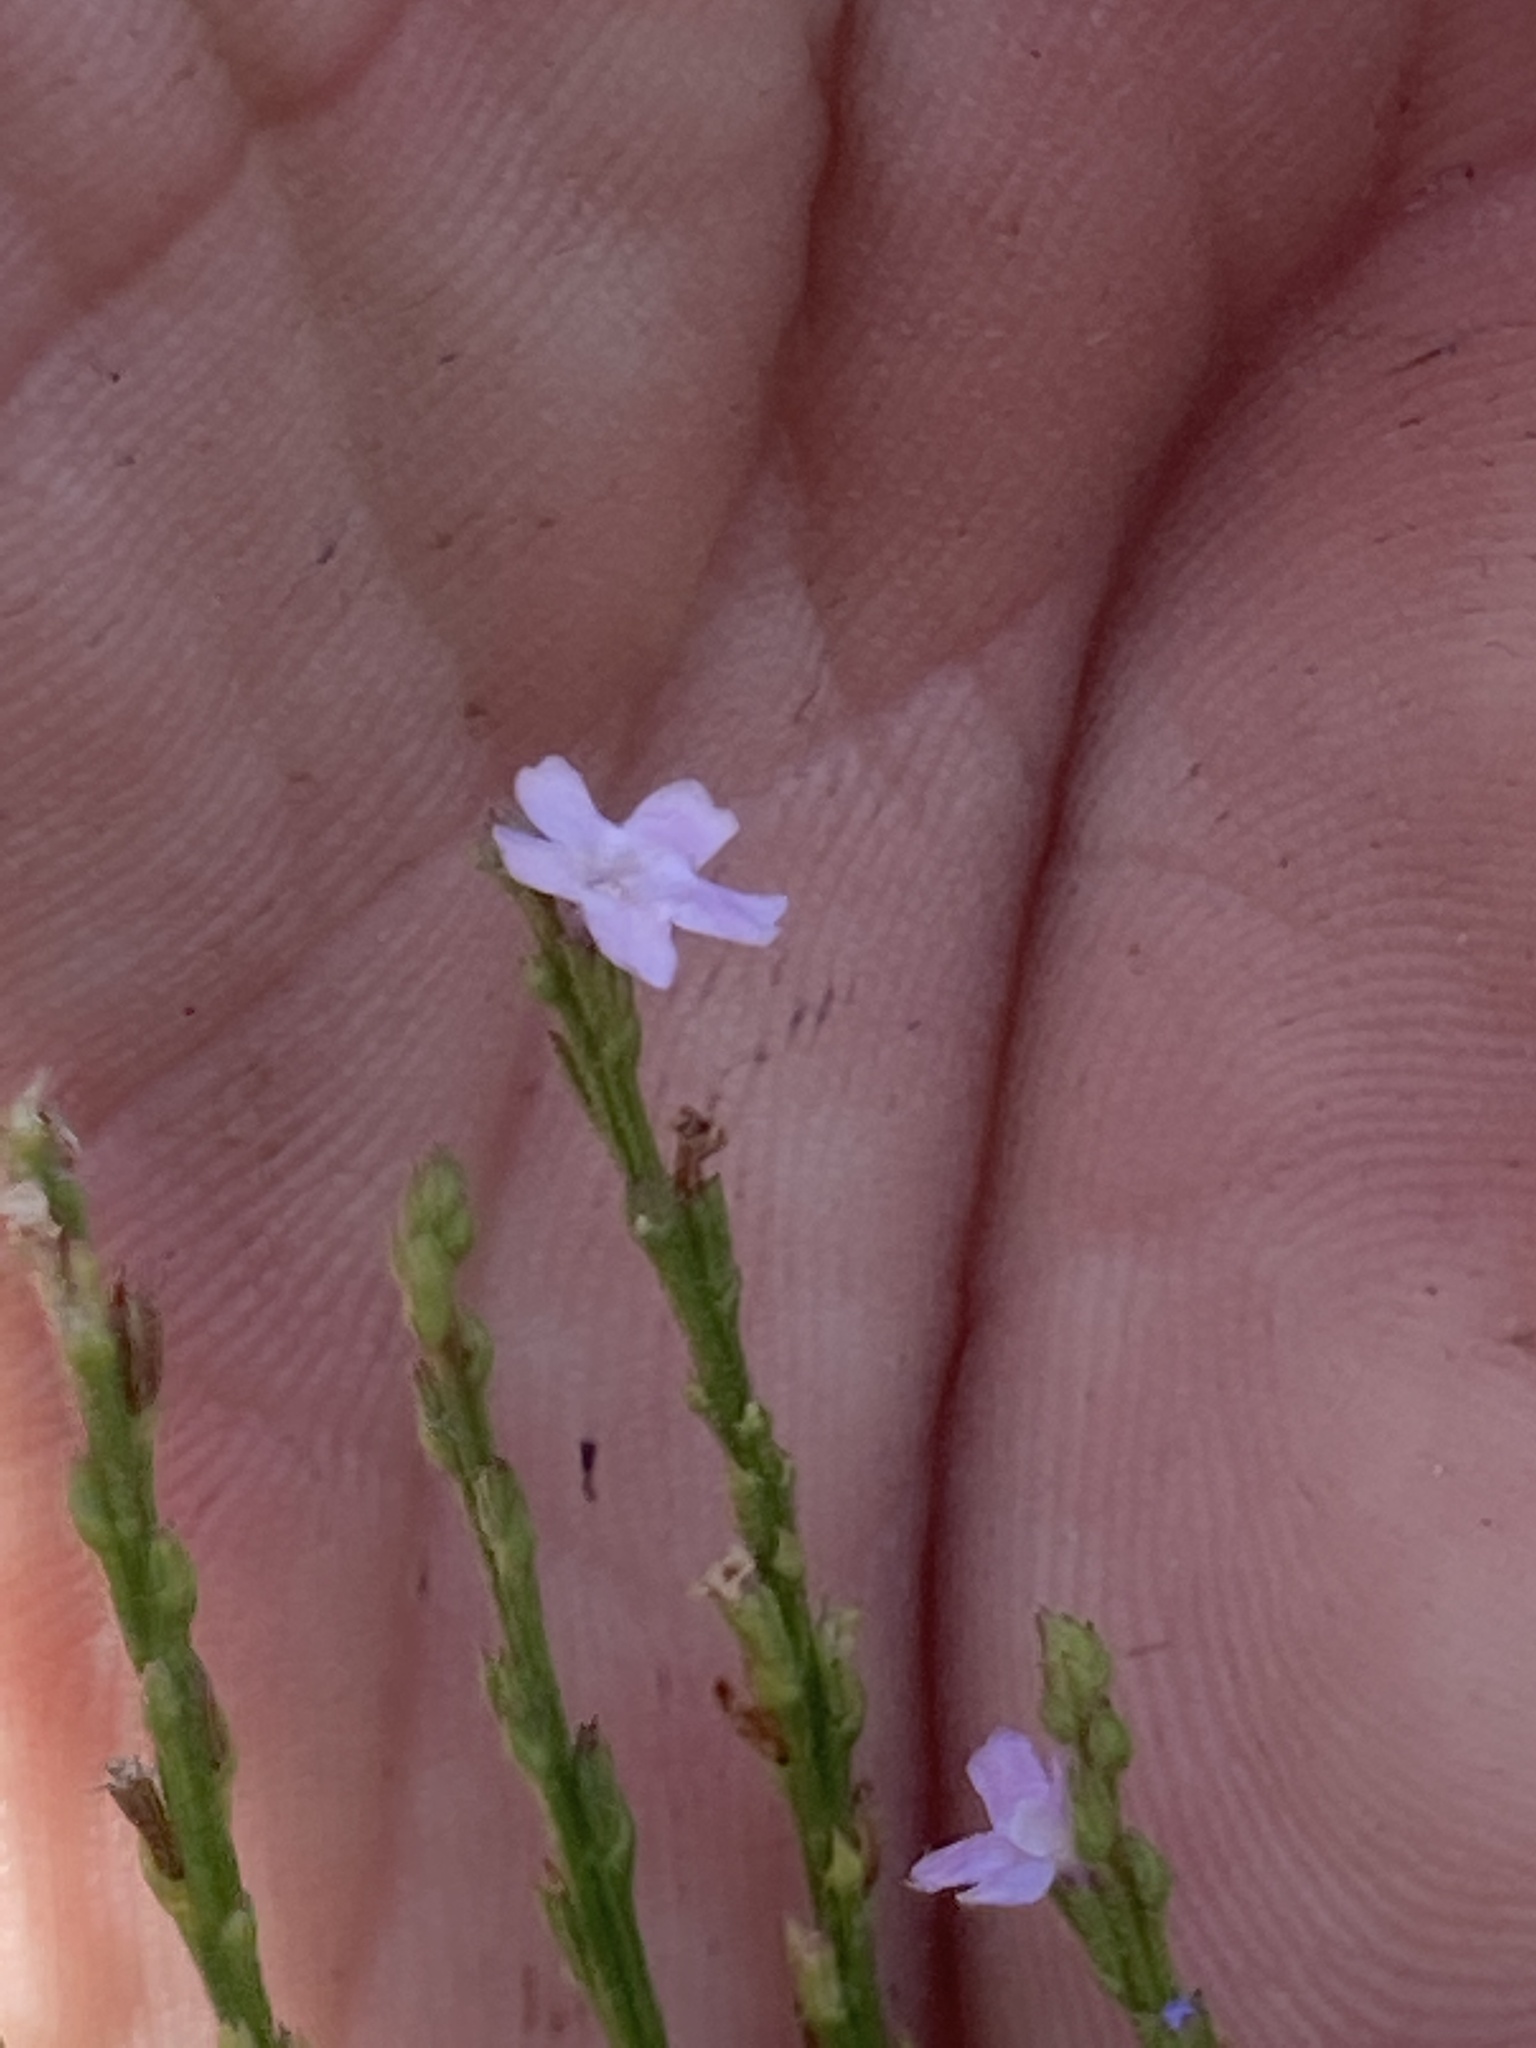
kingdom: Plantae
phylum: Tracheophyta
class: Magnoliopsida
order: Lamiales
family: Verbenaceae
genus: Verbena
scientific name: Verbena halei
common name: Texas vervain
